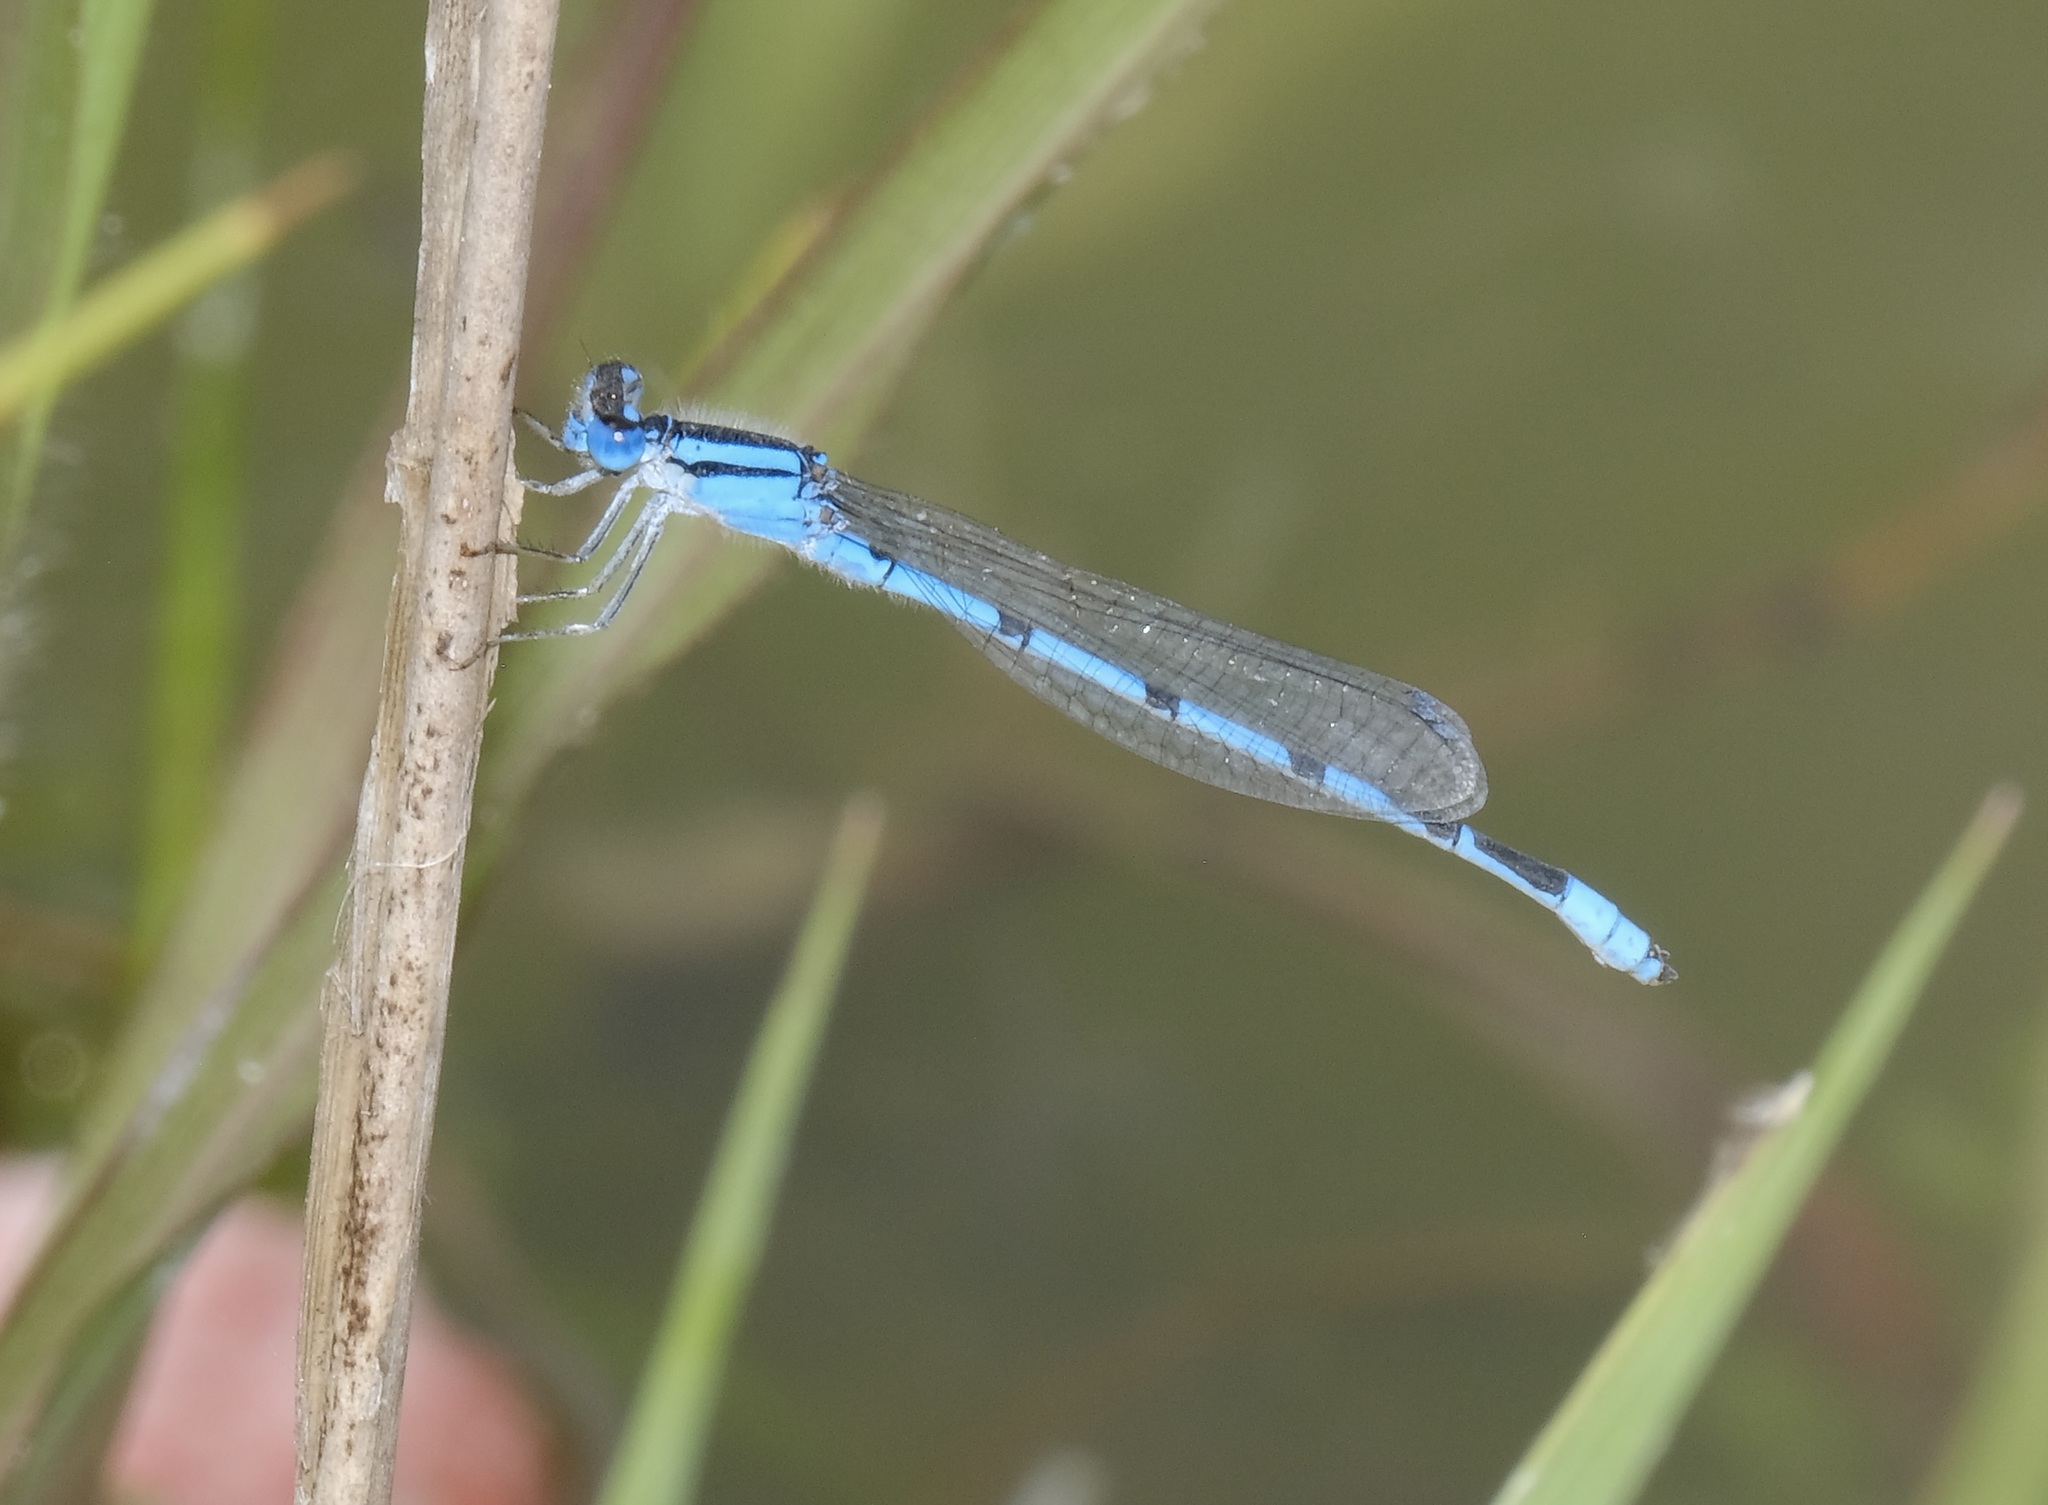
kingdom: Animalia
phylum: Arthropoda
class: Insecta
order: Odonata
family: Coenagrionidae
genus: Enallagma
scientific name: Enallagma civile
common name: Damselfly
